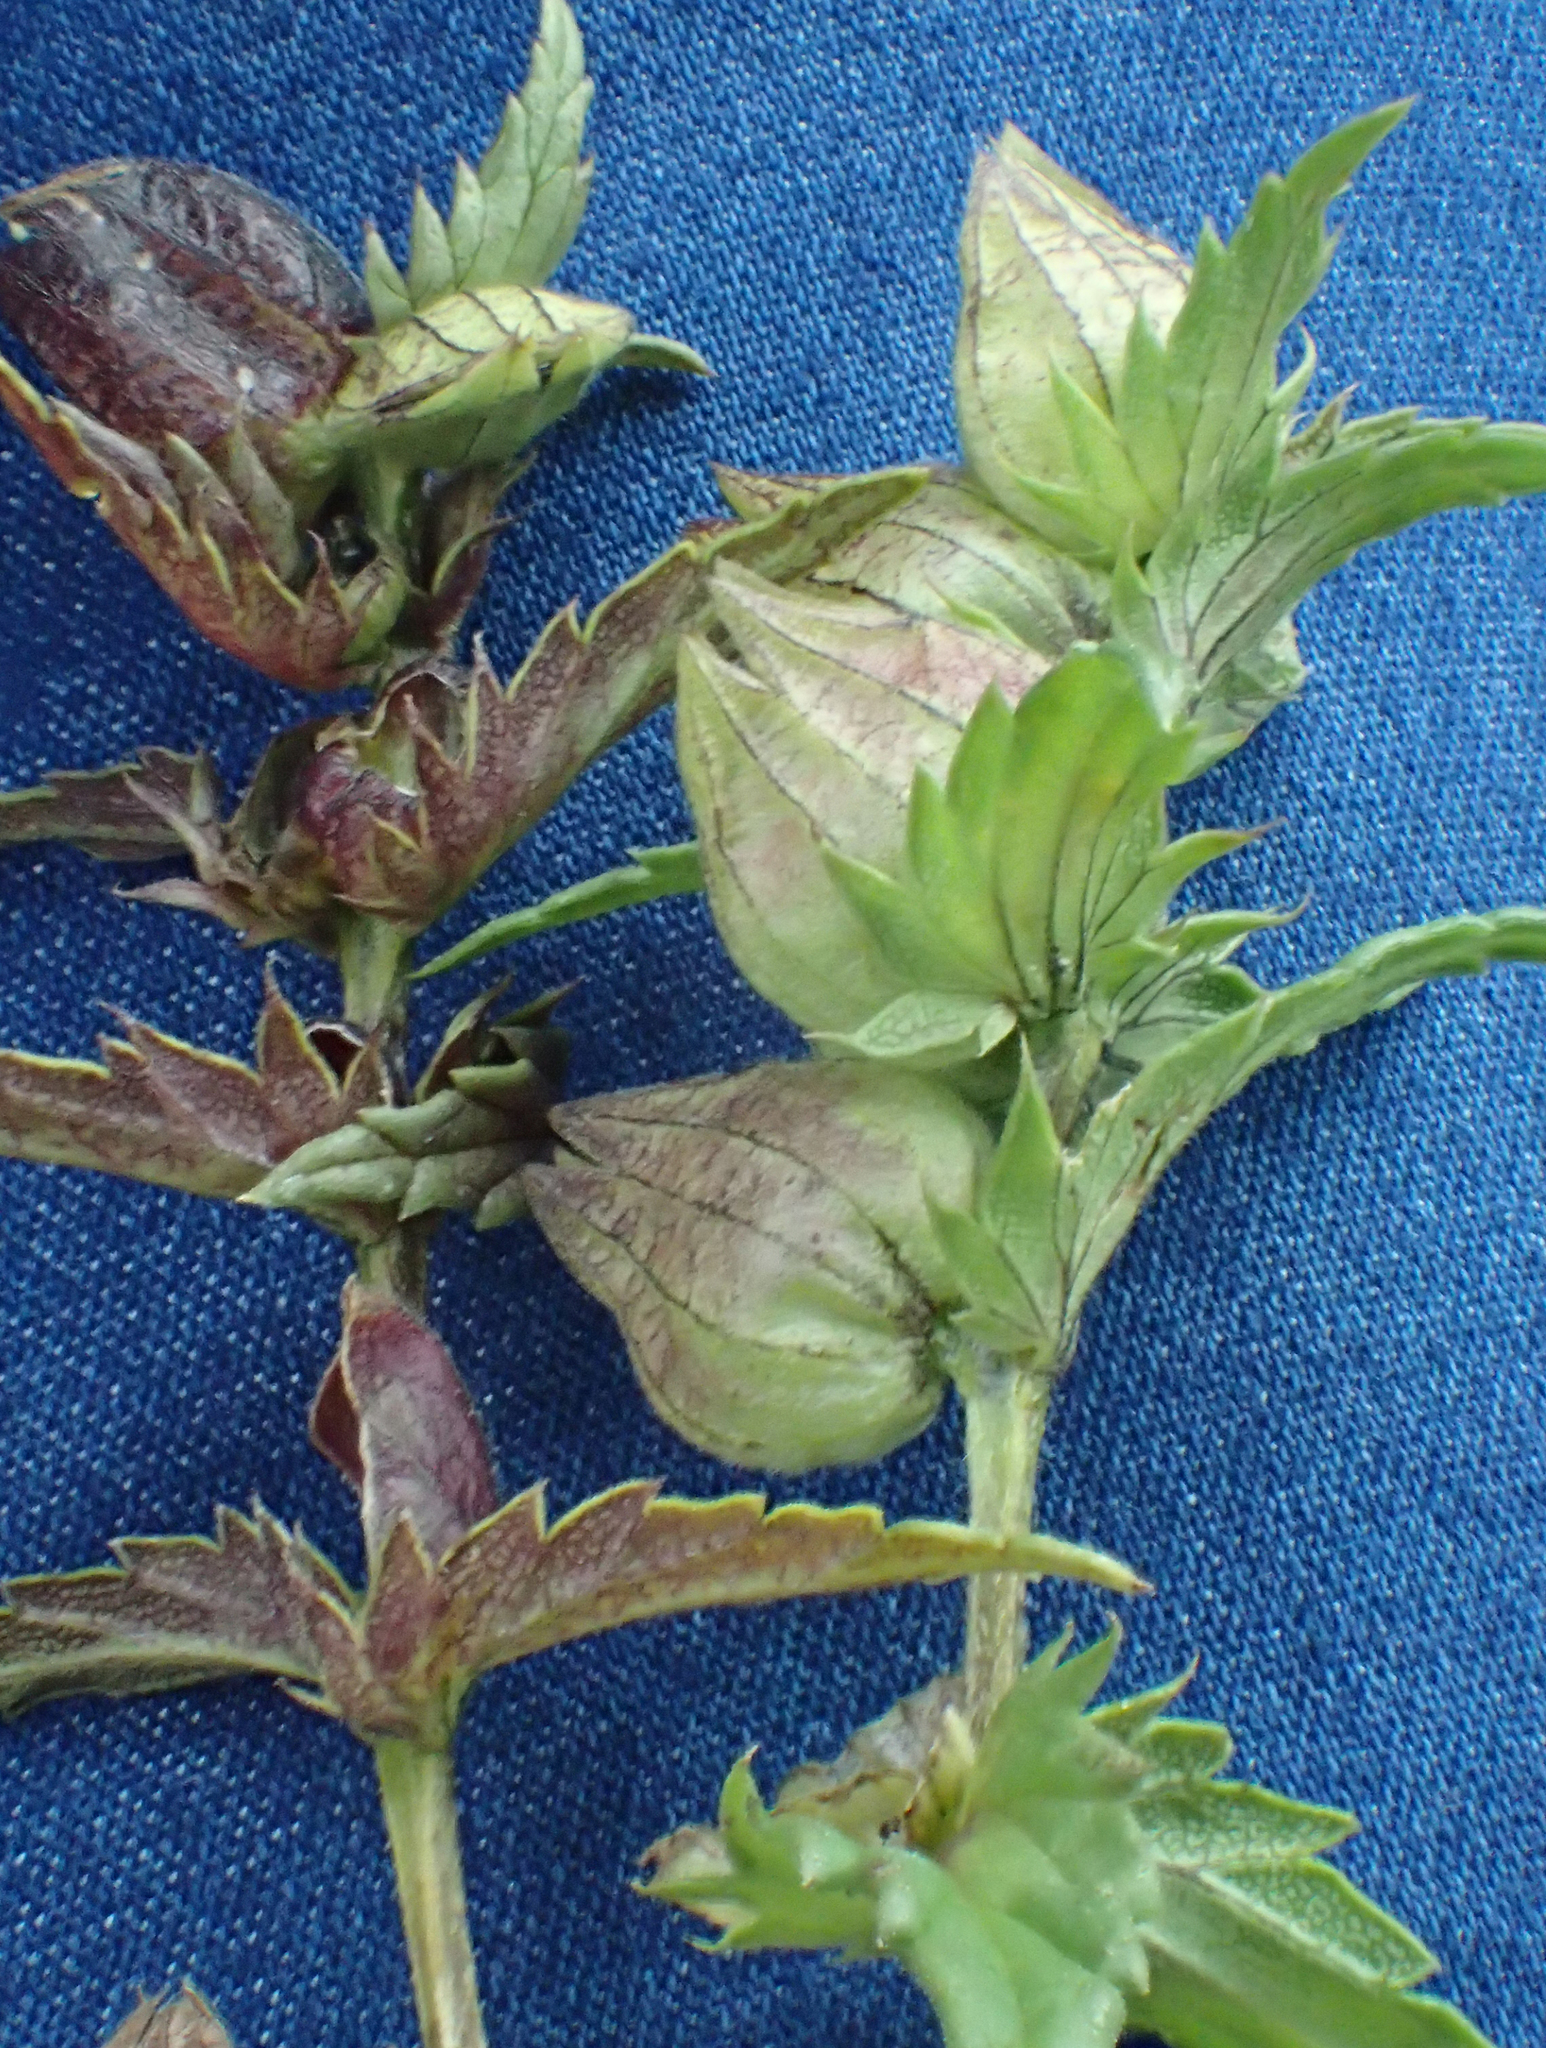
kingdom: Plantae
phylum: Tracheophyta
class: Magnoliopsida
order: Lamiales
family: Orobanchaceae
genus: Rhinanthus
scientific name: Rhinanthus minor
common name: Yellow-rattle
